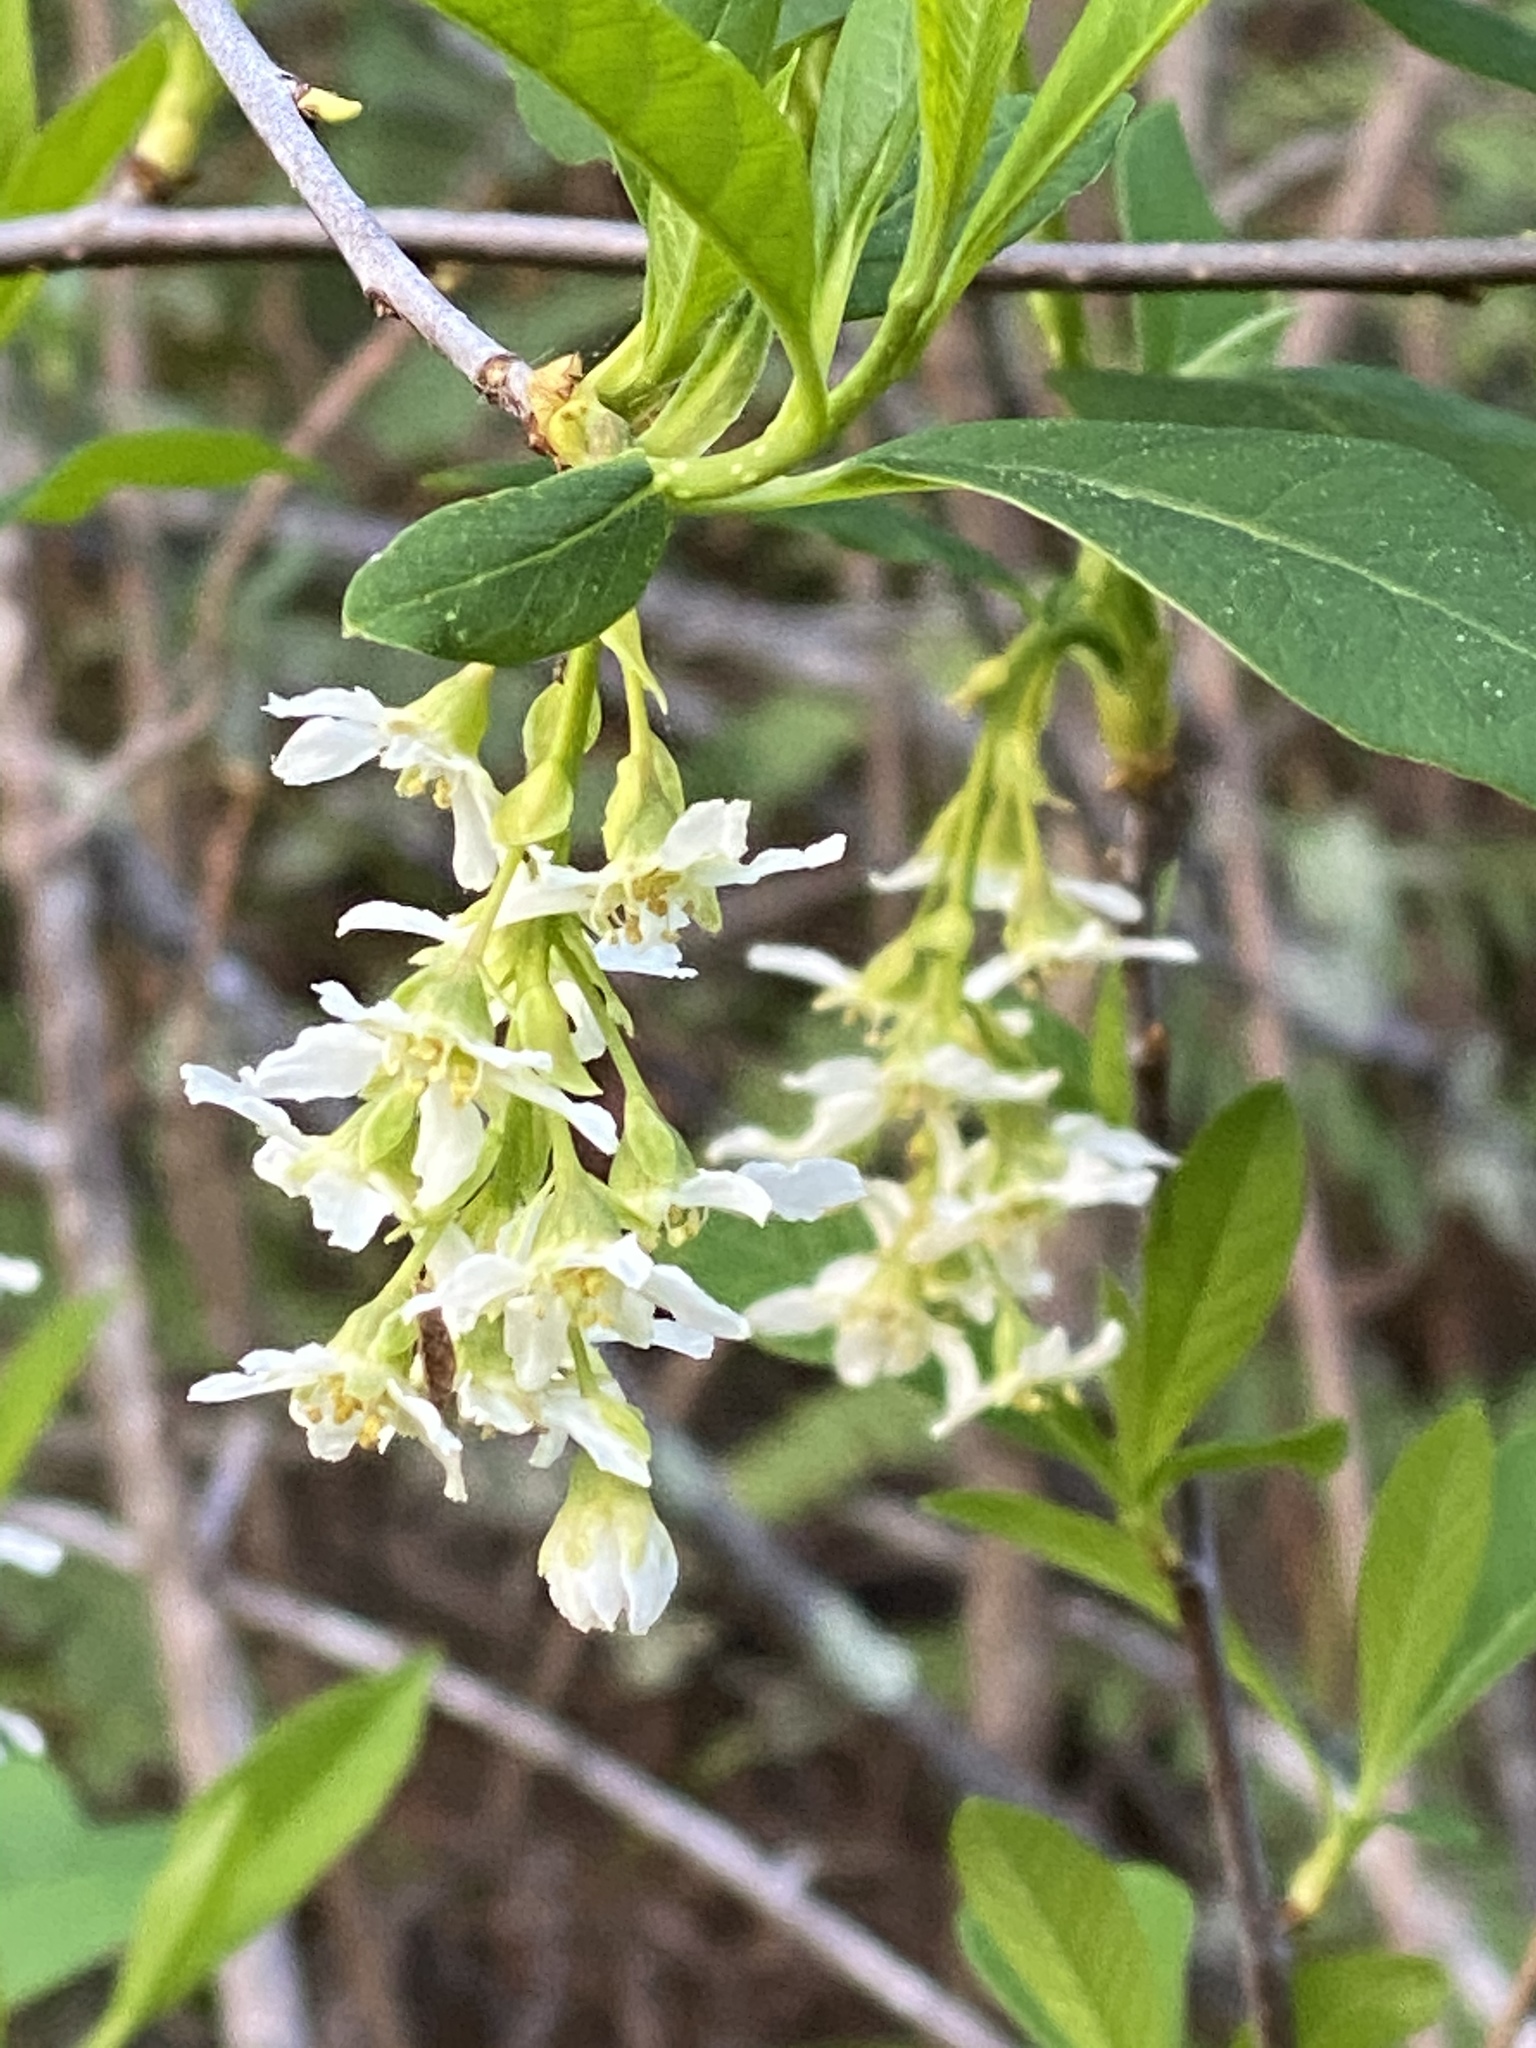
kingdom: Plantae
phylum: Tracheophyta
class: Magnoliopsida
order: Rosales
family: Rosaceae
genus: Oemleria
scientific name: Oemleria cerasiformis
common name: Osoberry
